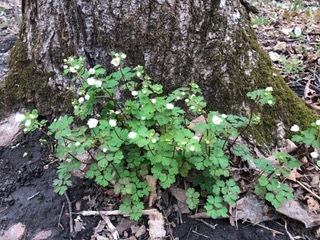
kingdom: Plantae
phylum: Tracheophyta
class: Magnoliopsida
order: Ranunculales
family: Ranunculaceae
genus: Enemion
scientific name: Enemion biternatum
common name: Eastern false rue-anemone
